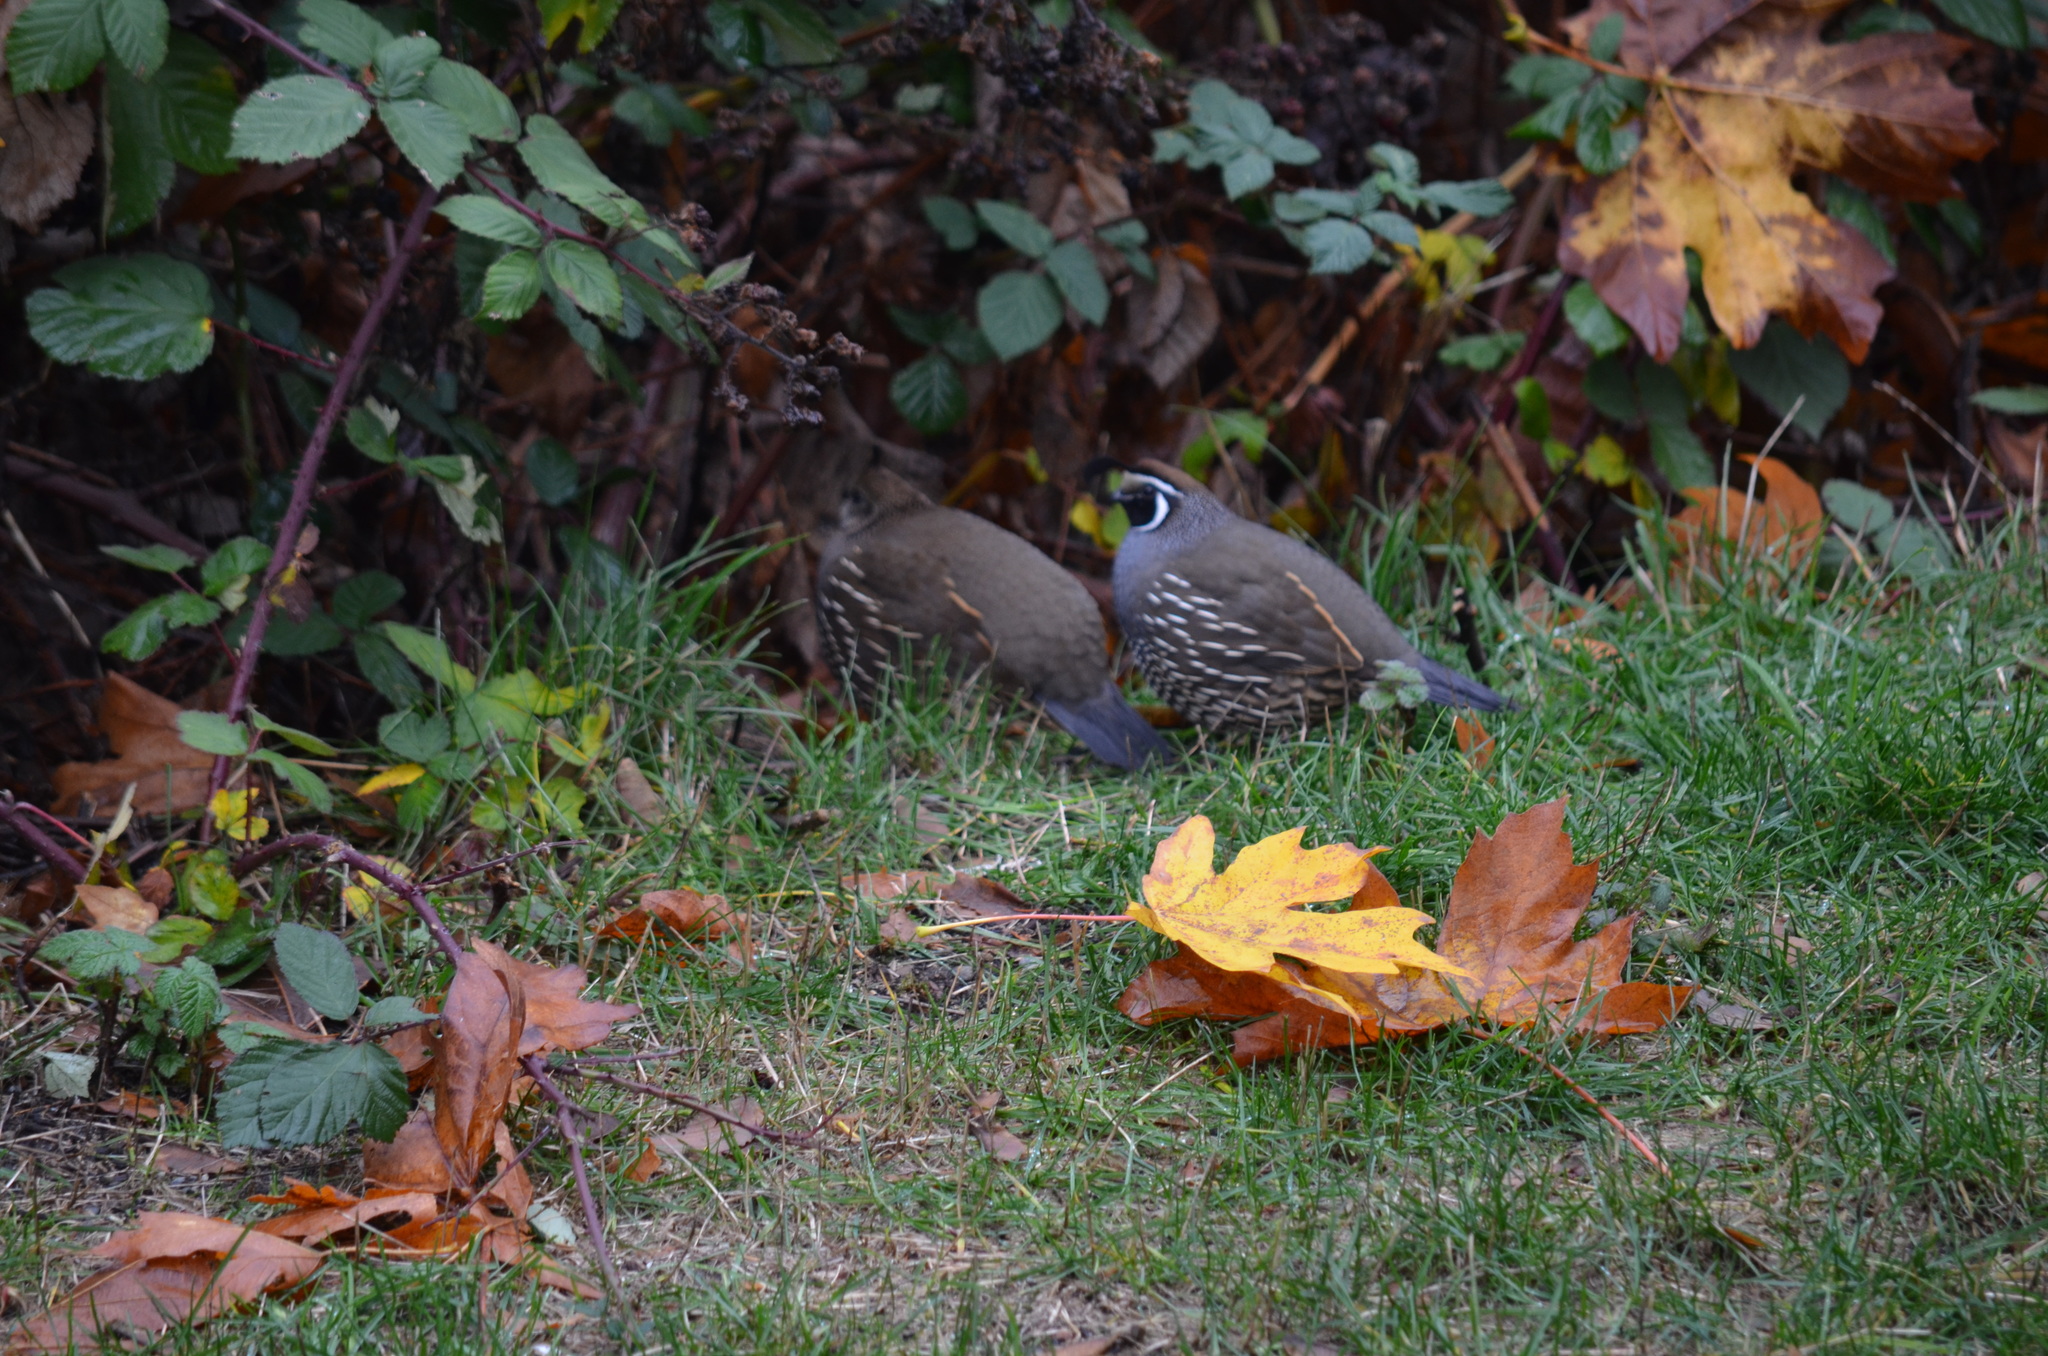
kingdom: Animalia
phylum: Chordata
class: Aves
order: Galliformes
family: Odontophoridae
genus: Callipepla
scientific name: Callipepla californica
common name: California quail
